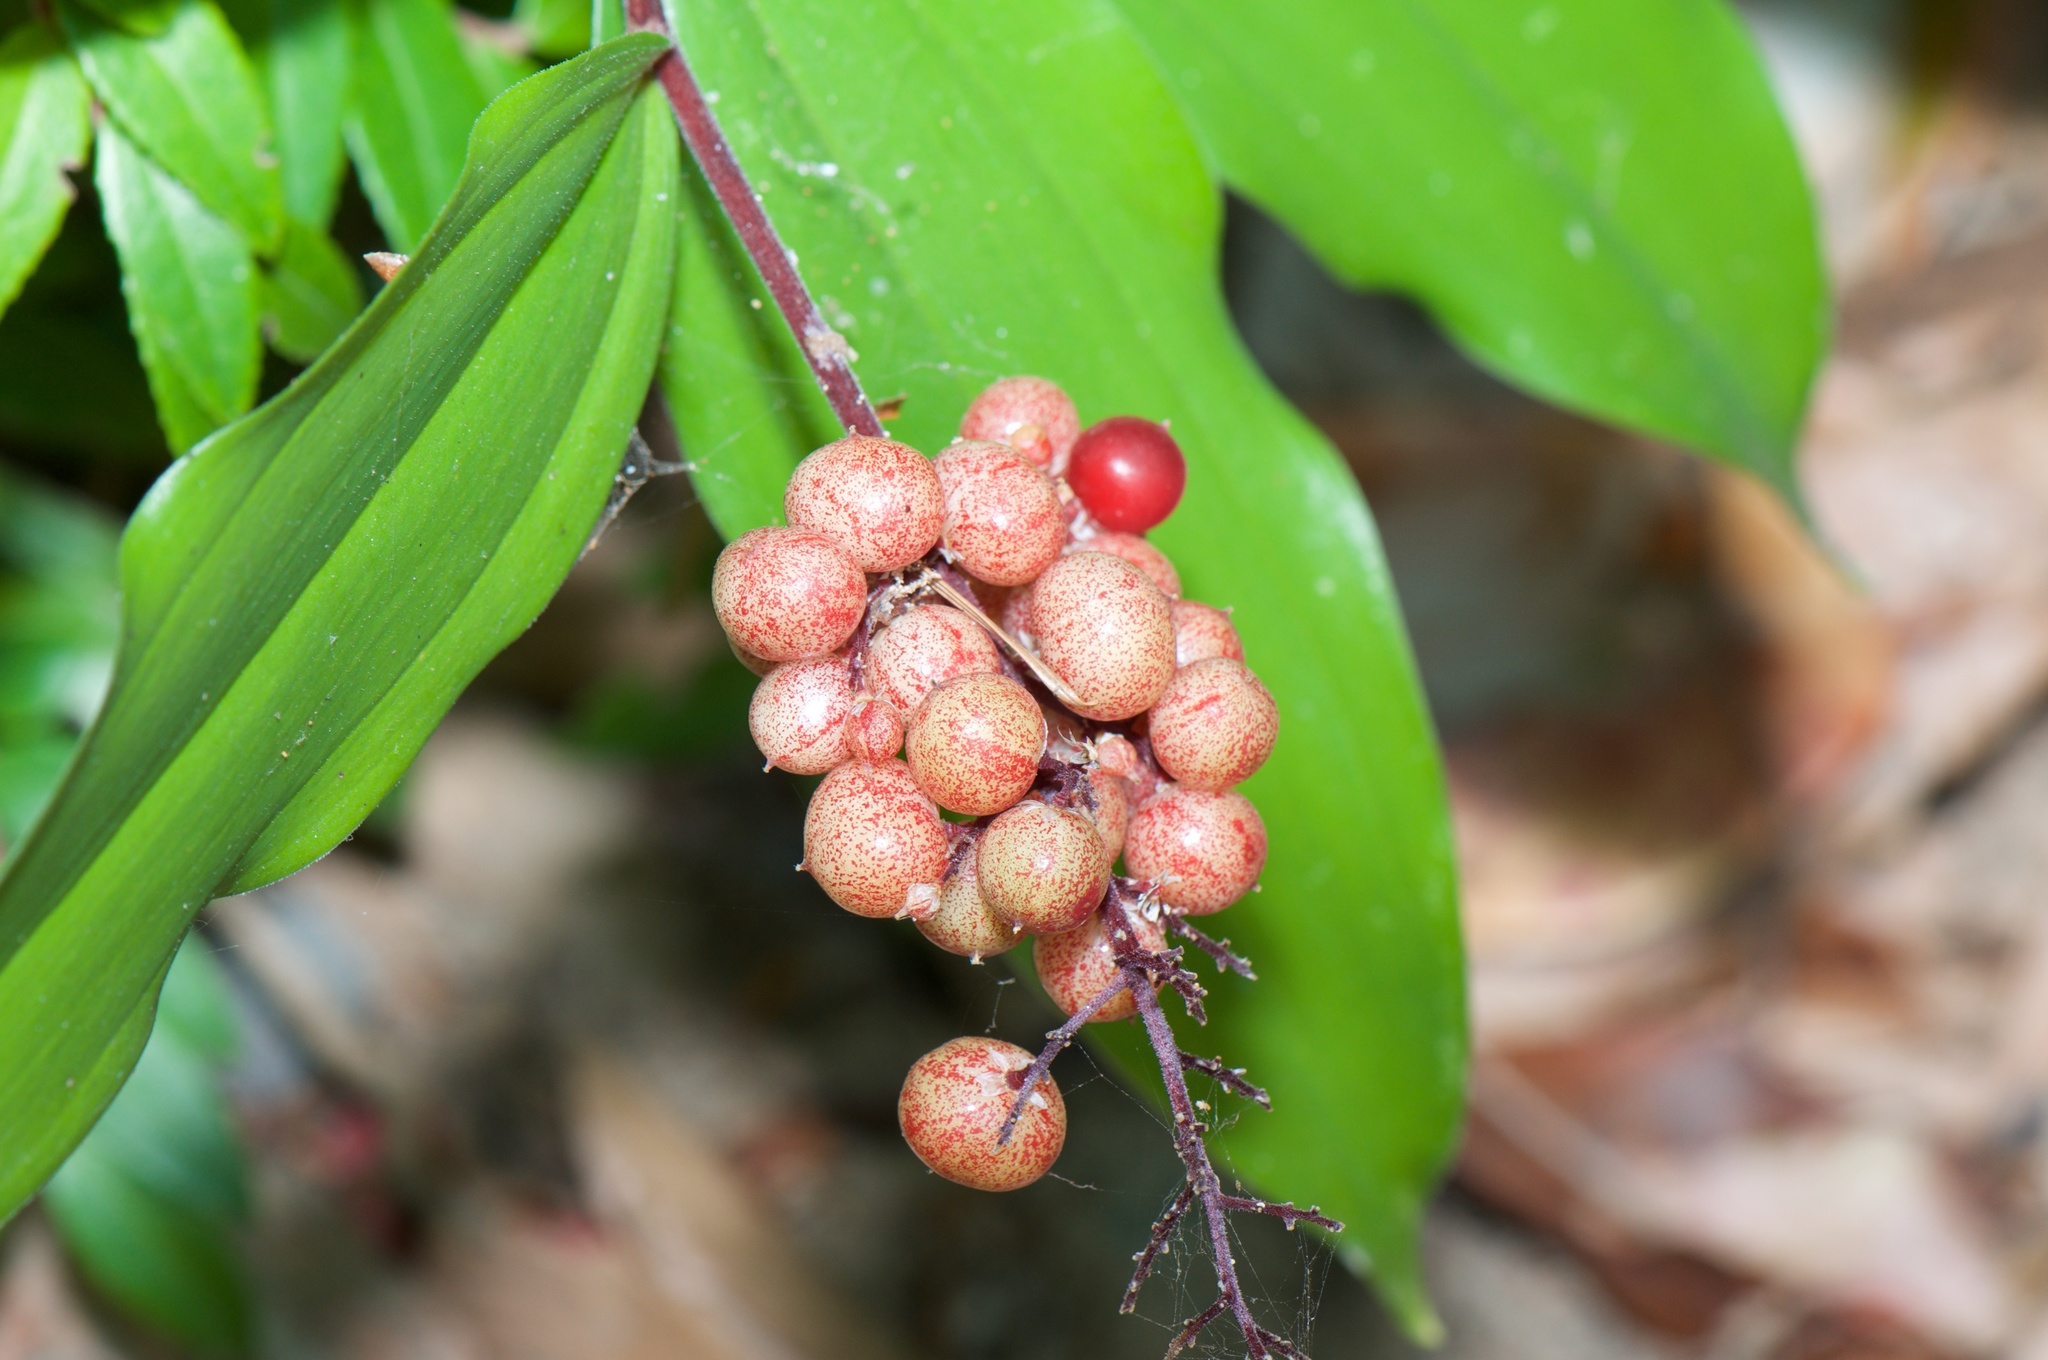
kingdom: Plantae
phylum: Tracheophyta
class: Liliopsida
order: Asparagales
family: Asparagaceae
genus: Maianthemum
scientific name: Maianthemum racemosum
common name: False spikenard
